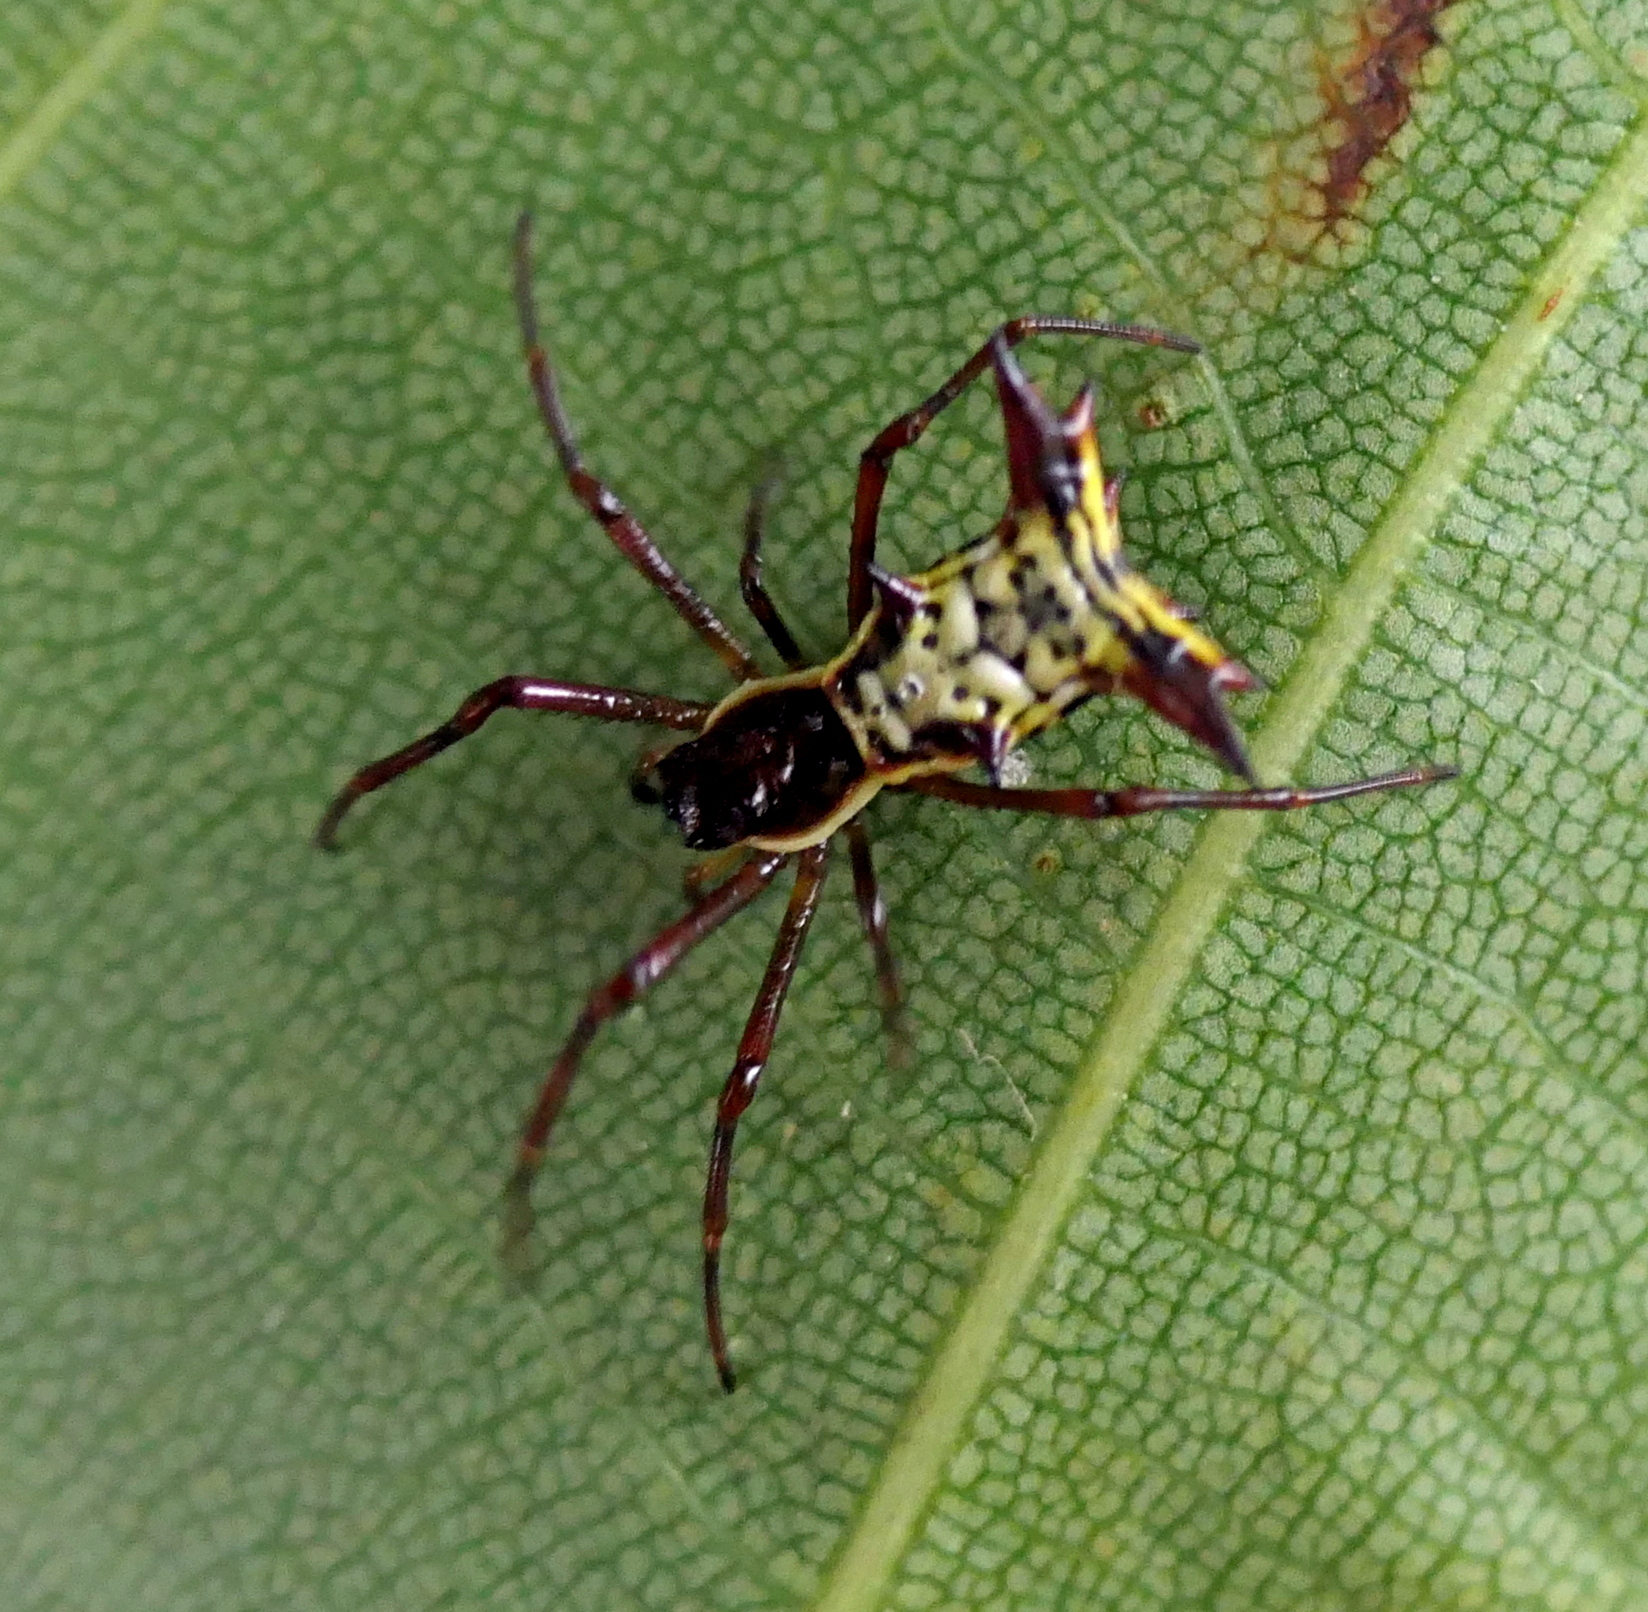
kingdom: Animalia
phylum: Arthropoda
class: Arachnida
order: Araneae
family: Araneidae
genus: Micrathena
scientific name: Micrathena fissispina
